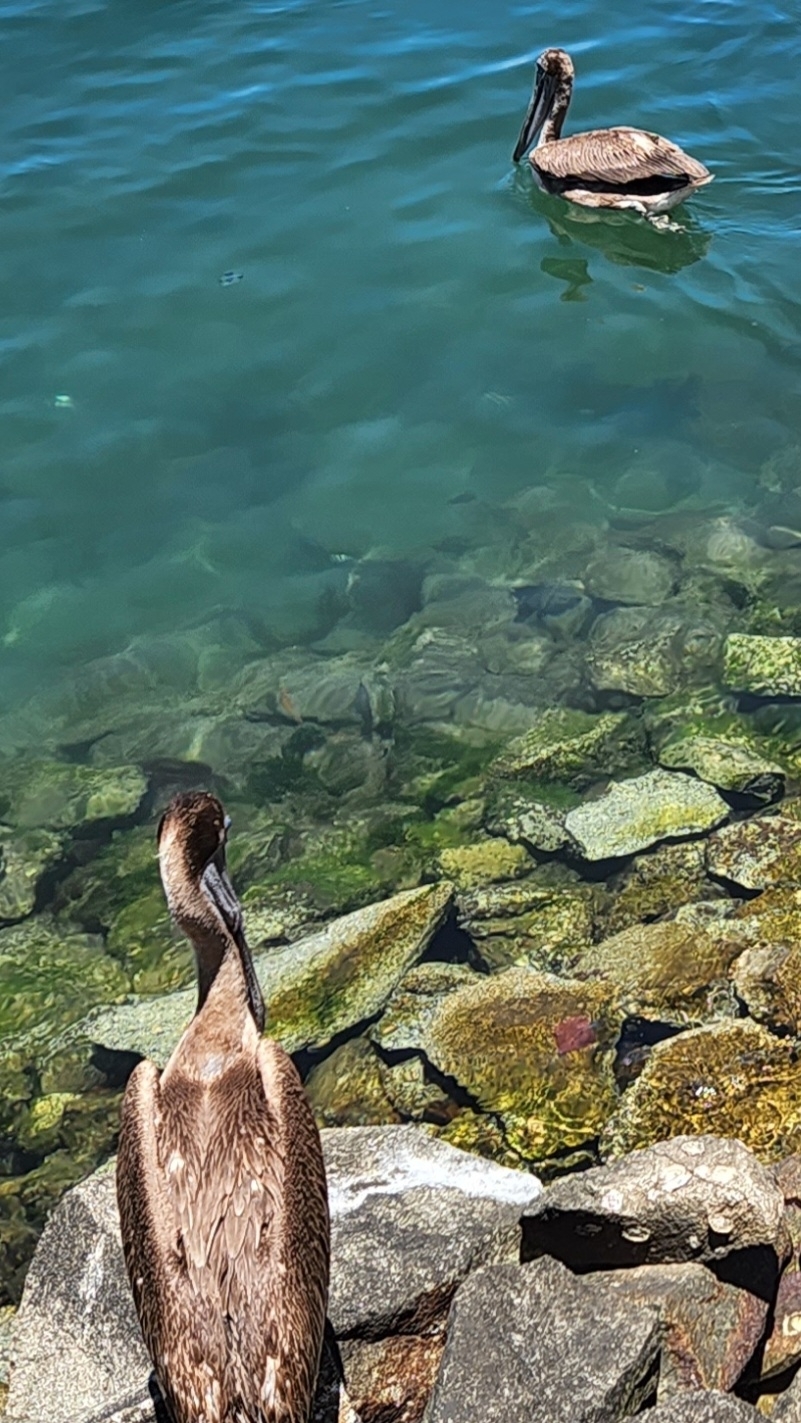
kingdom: Animalia
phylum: Chordata
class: Aves
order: Pelecaniformes
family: Pelecanidae
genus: Pelecanus
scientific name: Pelecanus occidentalis
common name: Brown pelican
